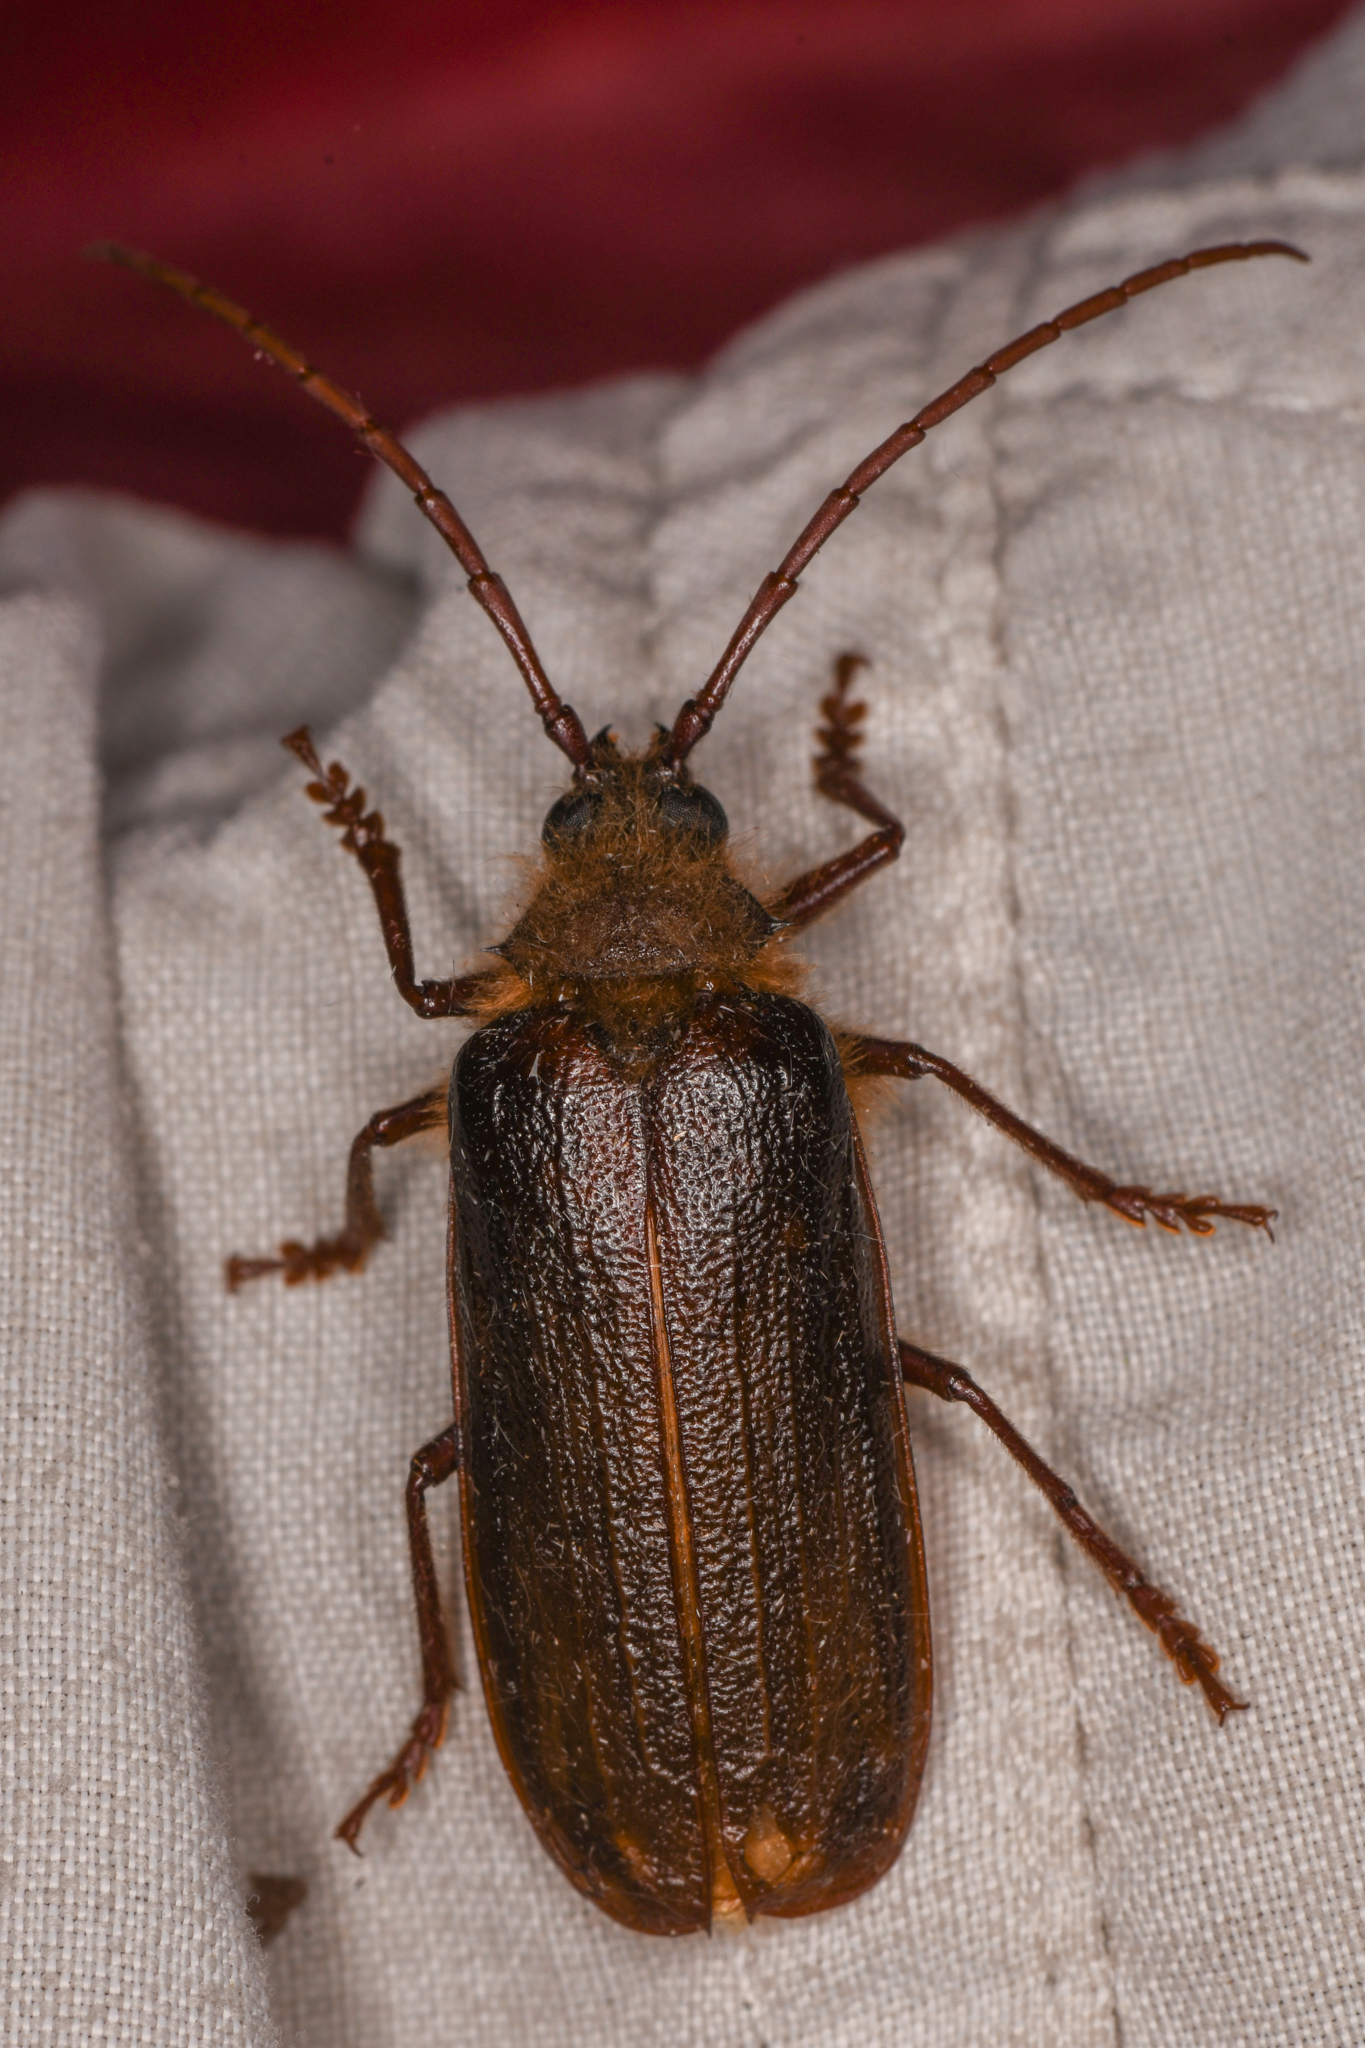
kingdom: Animalia
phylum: Arthropoda
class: Insecta
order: Coleoptera
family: Cerambycidae
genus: Tragosoma
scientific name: Tragosoma harrisii
